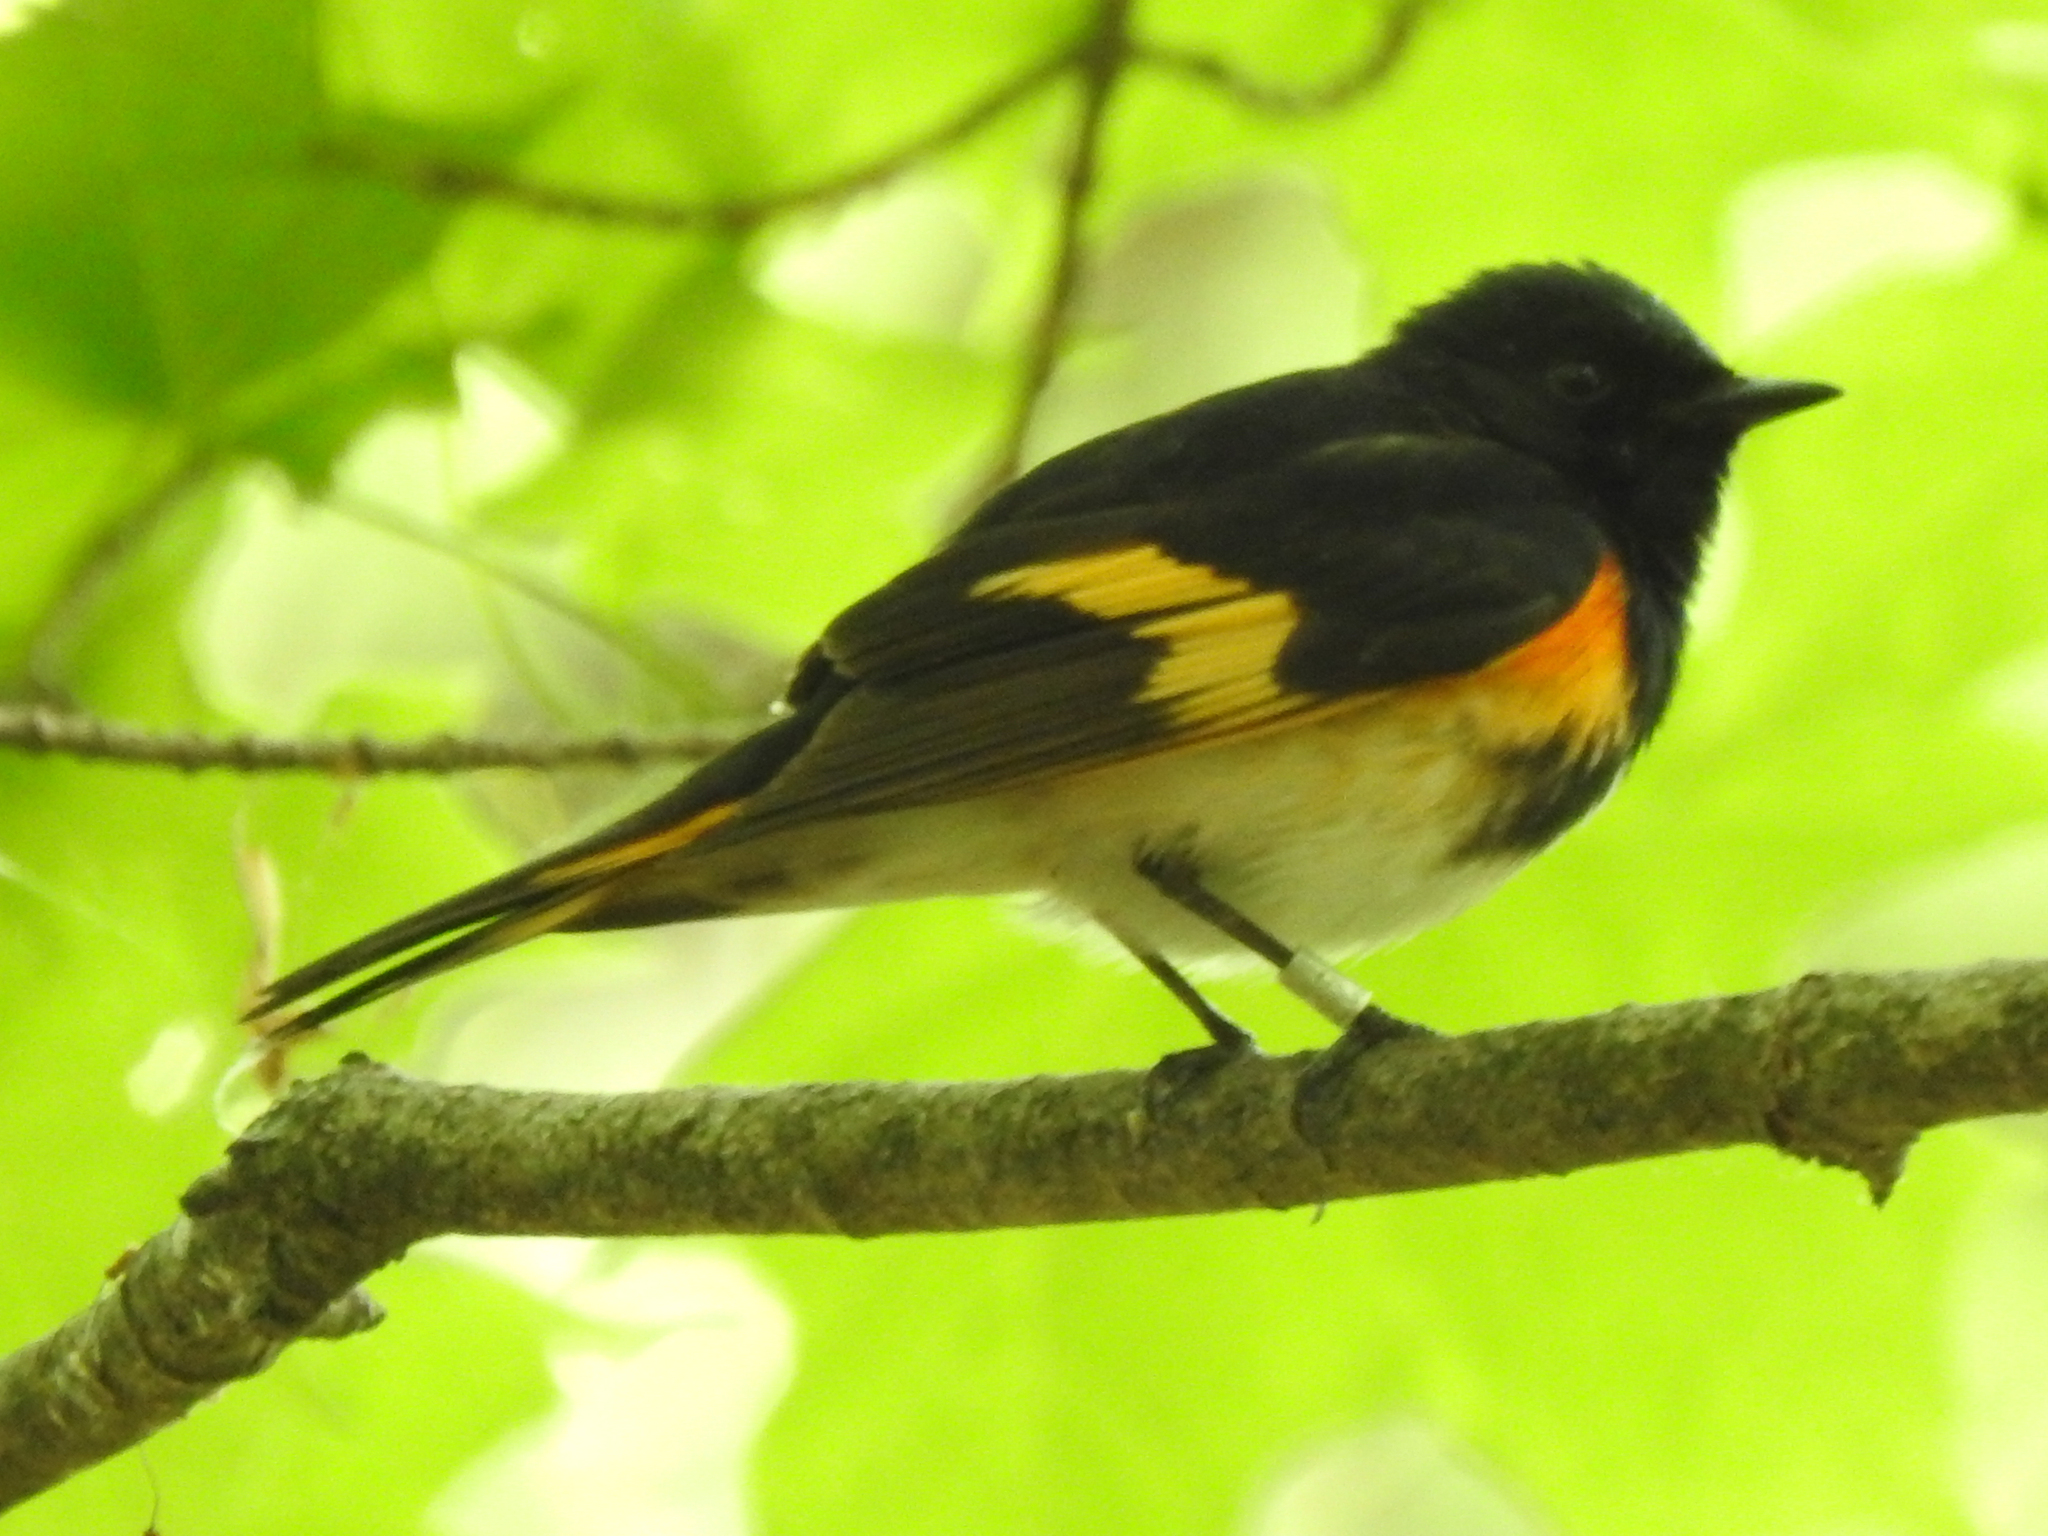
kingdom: Animalia
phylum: Chordata
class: Aves
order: Passeriformes
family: Parulidae
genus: Setophaga
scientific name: Setophaga ruticilla
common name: American redstart
